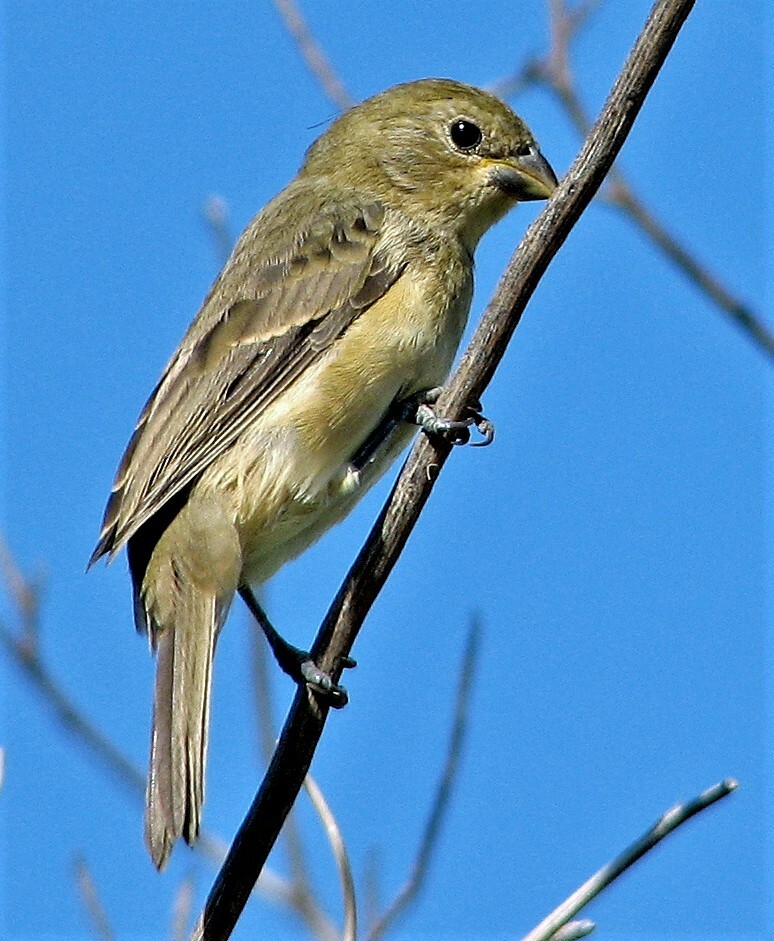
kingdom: Animalia
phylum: Chordata
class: Aves
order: Passeriformes
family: Thraupidae
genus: Sporophila
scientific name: Sporophila caerulescens
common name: Double-collared seedeater
